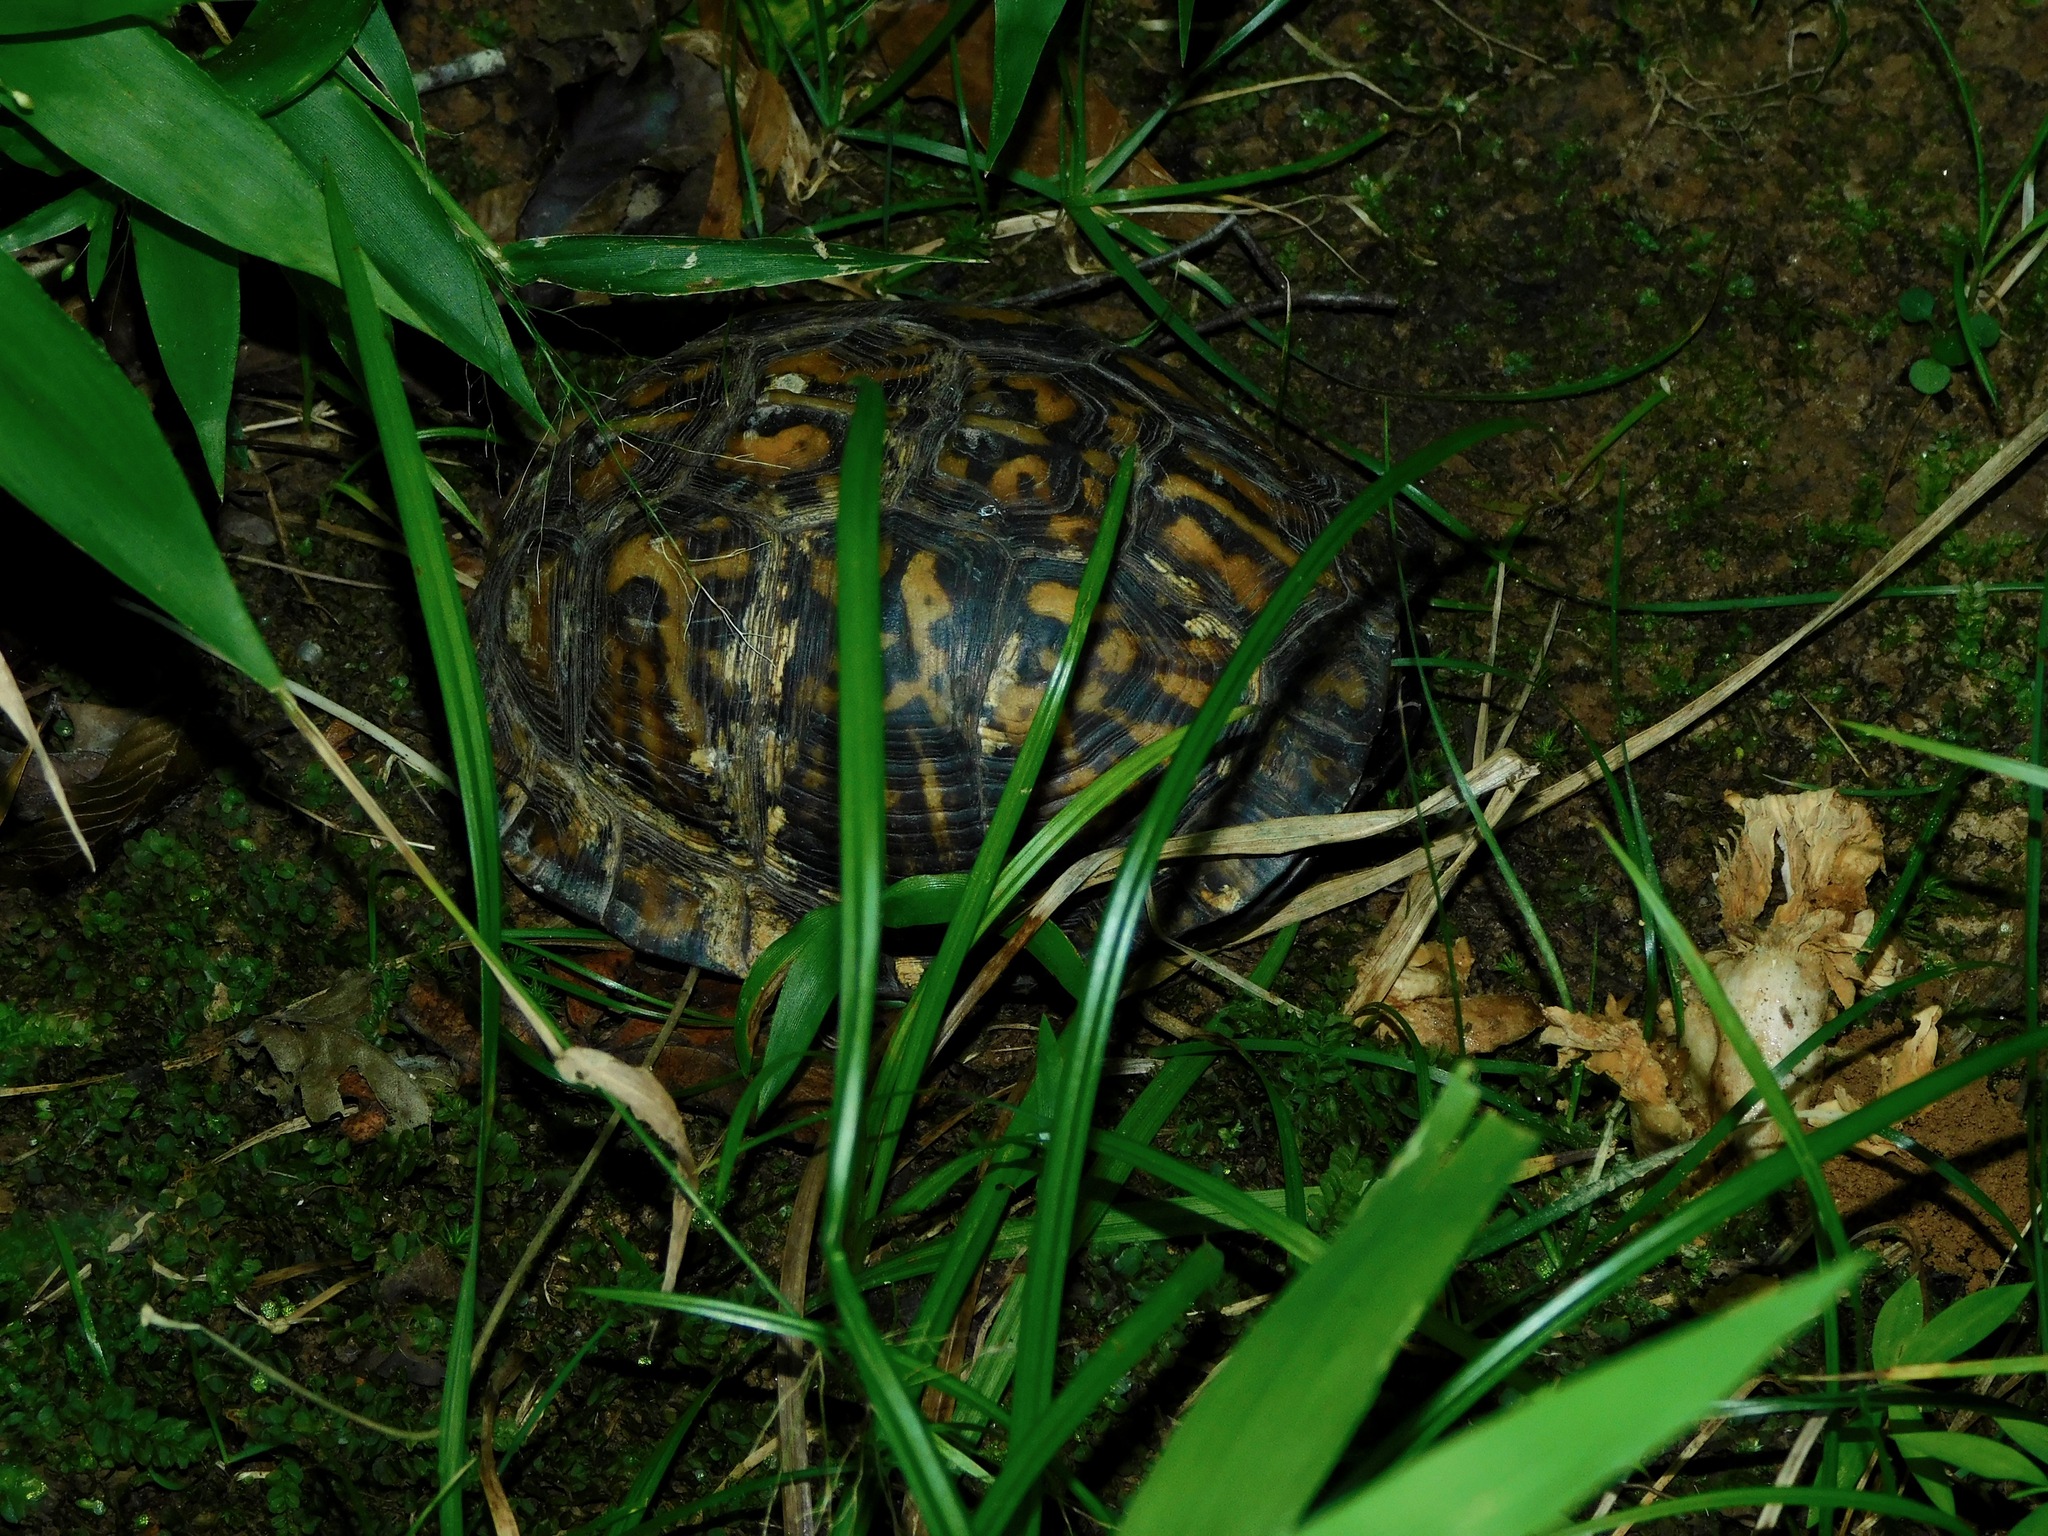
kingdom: Animalia
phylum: Chordata
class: Testudines
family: Emydidae
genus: Terrapene
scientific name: Terrapene carolina
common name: Common box turtle
